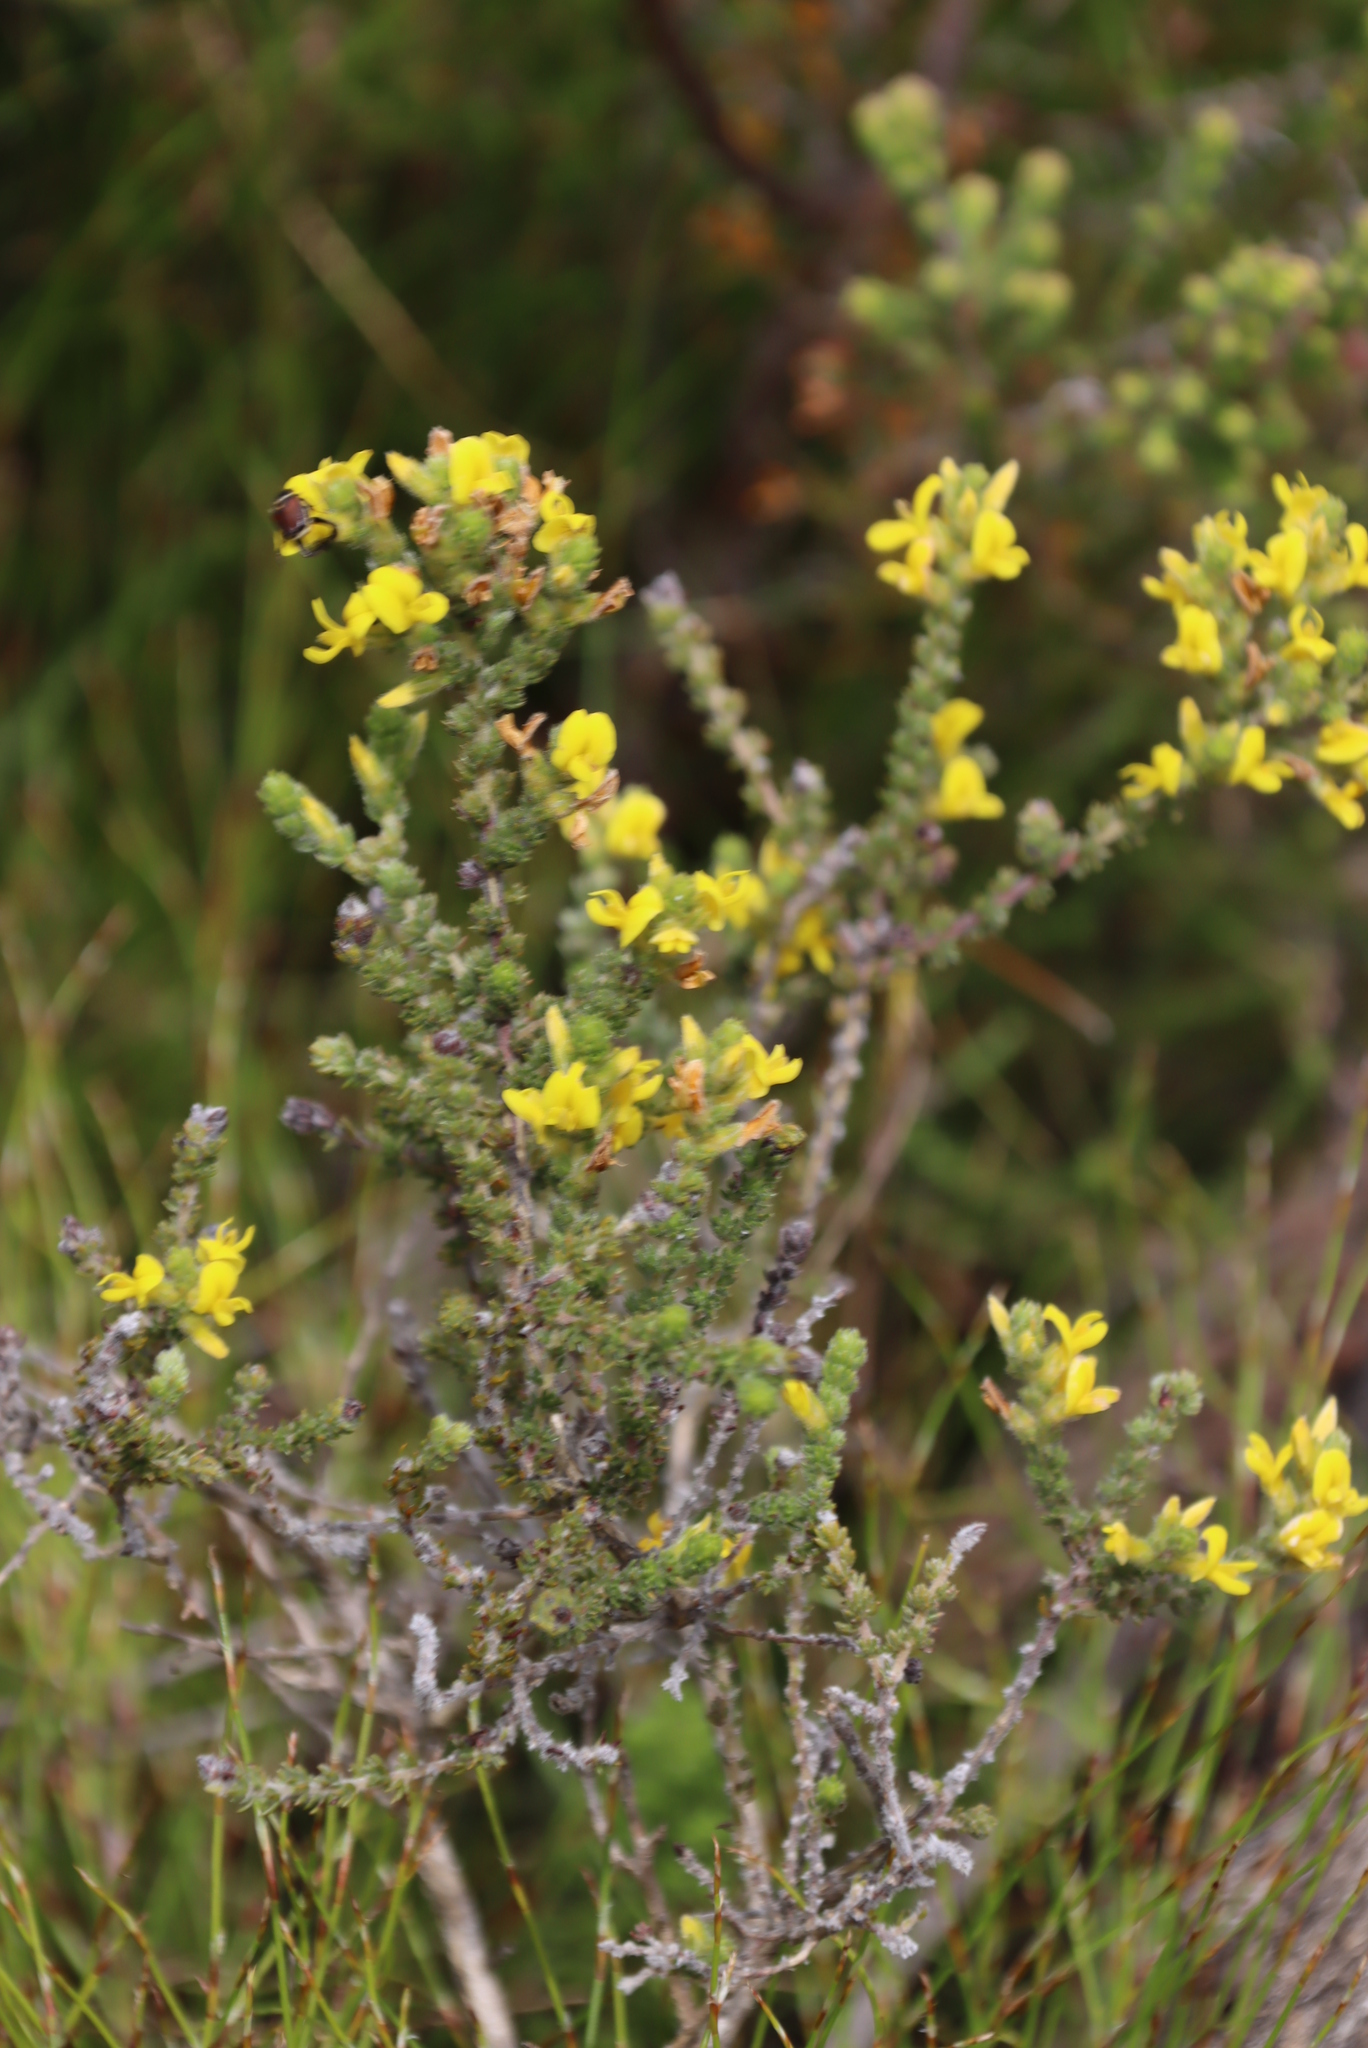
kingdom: Plantae
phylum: Tracheophyta
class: Magnoliopsida
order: Fabales
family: Fabaceae
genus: Aspalathus
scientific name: Aspalathus ericifolia
